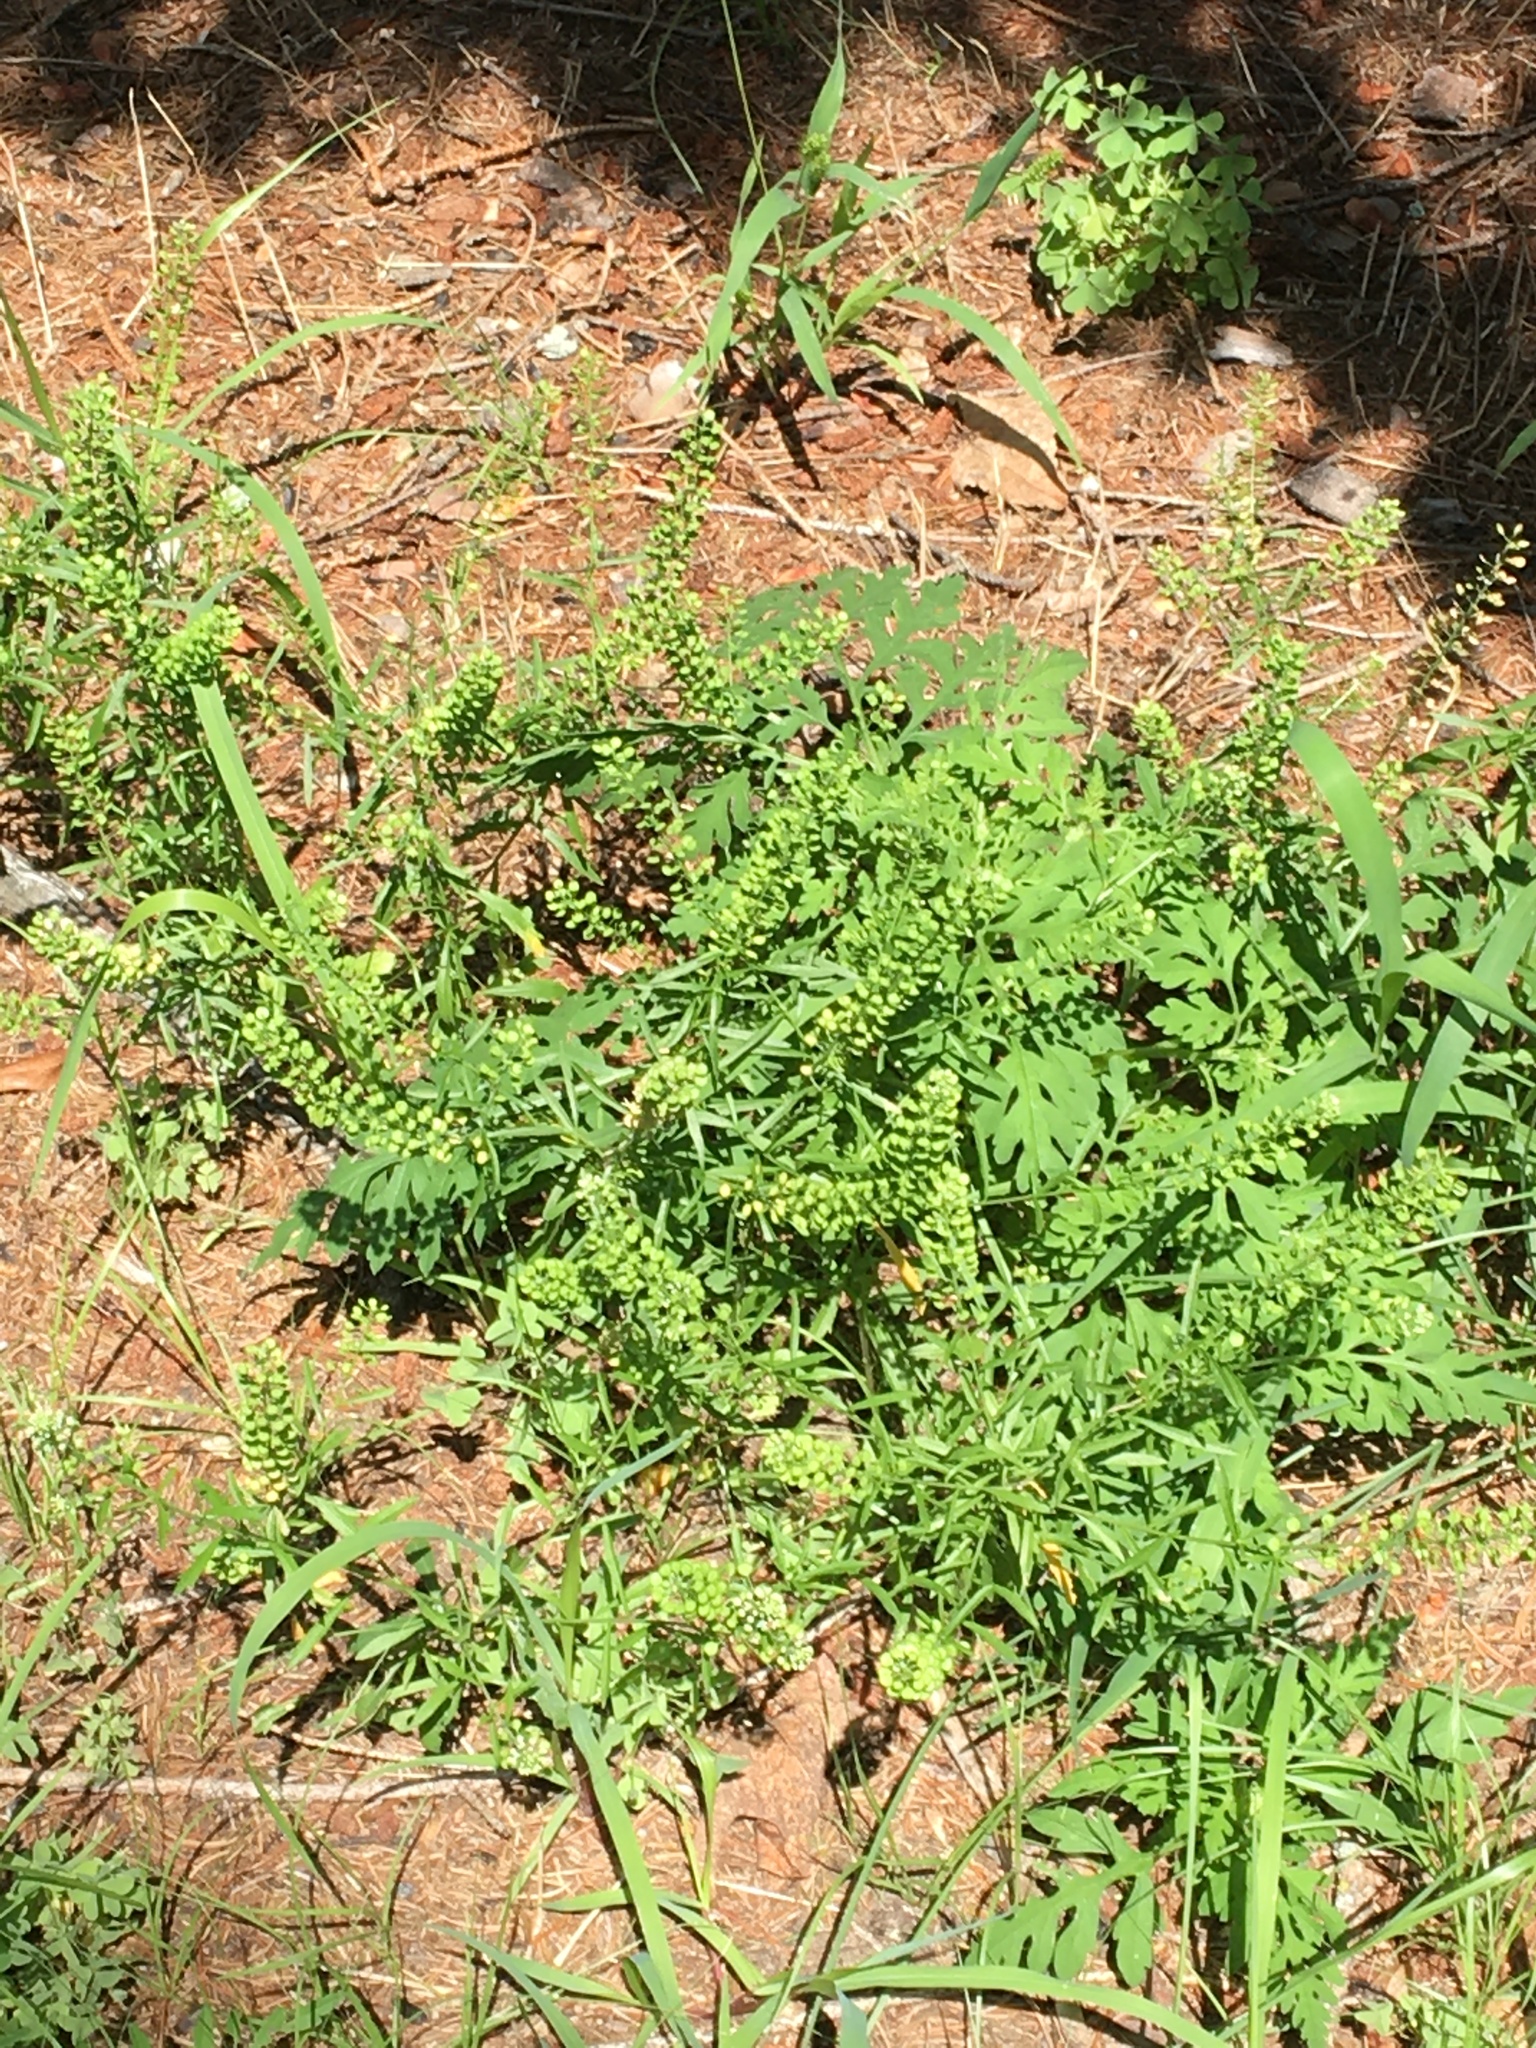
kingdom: Plantae
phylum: Tracheophyta
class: Magnoliopsida
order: Brassicales
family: Brassicaceae
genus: Lepidium
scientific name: Lepidium virginicum
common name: Least pepperwort
